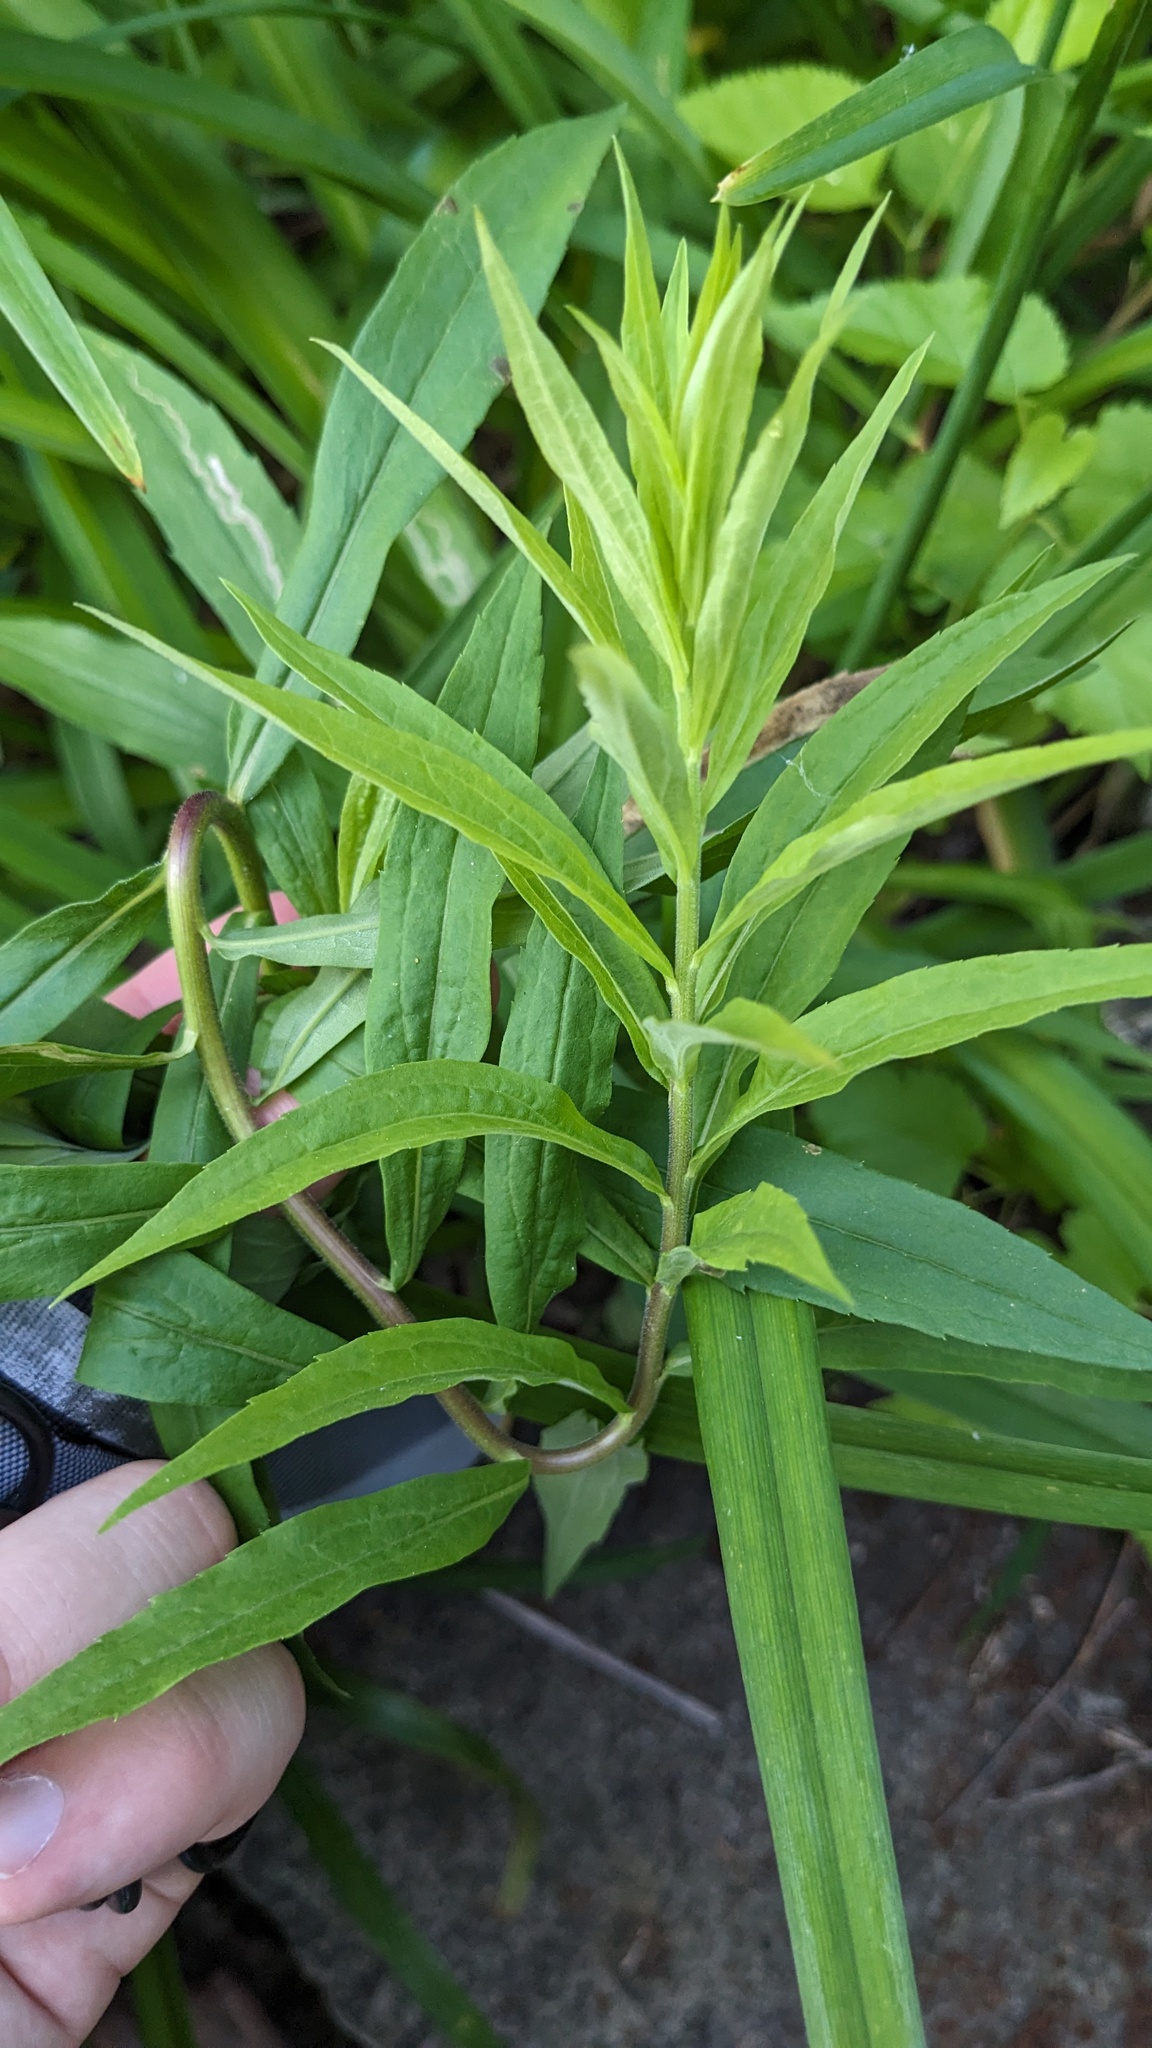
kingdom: Animalia
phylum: Arthropoda
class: Insecta
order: Diptera
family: Agromyzidae
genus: Nemorimyza
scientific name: Nemorimyza posticata
